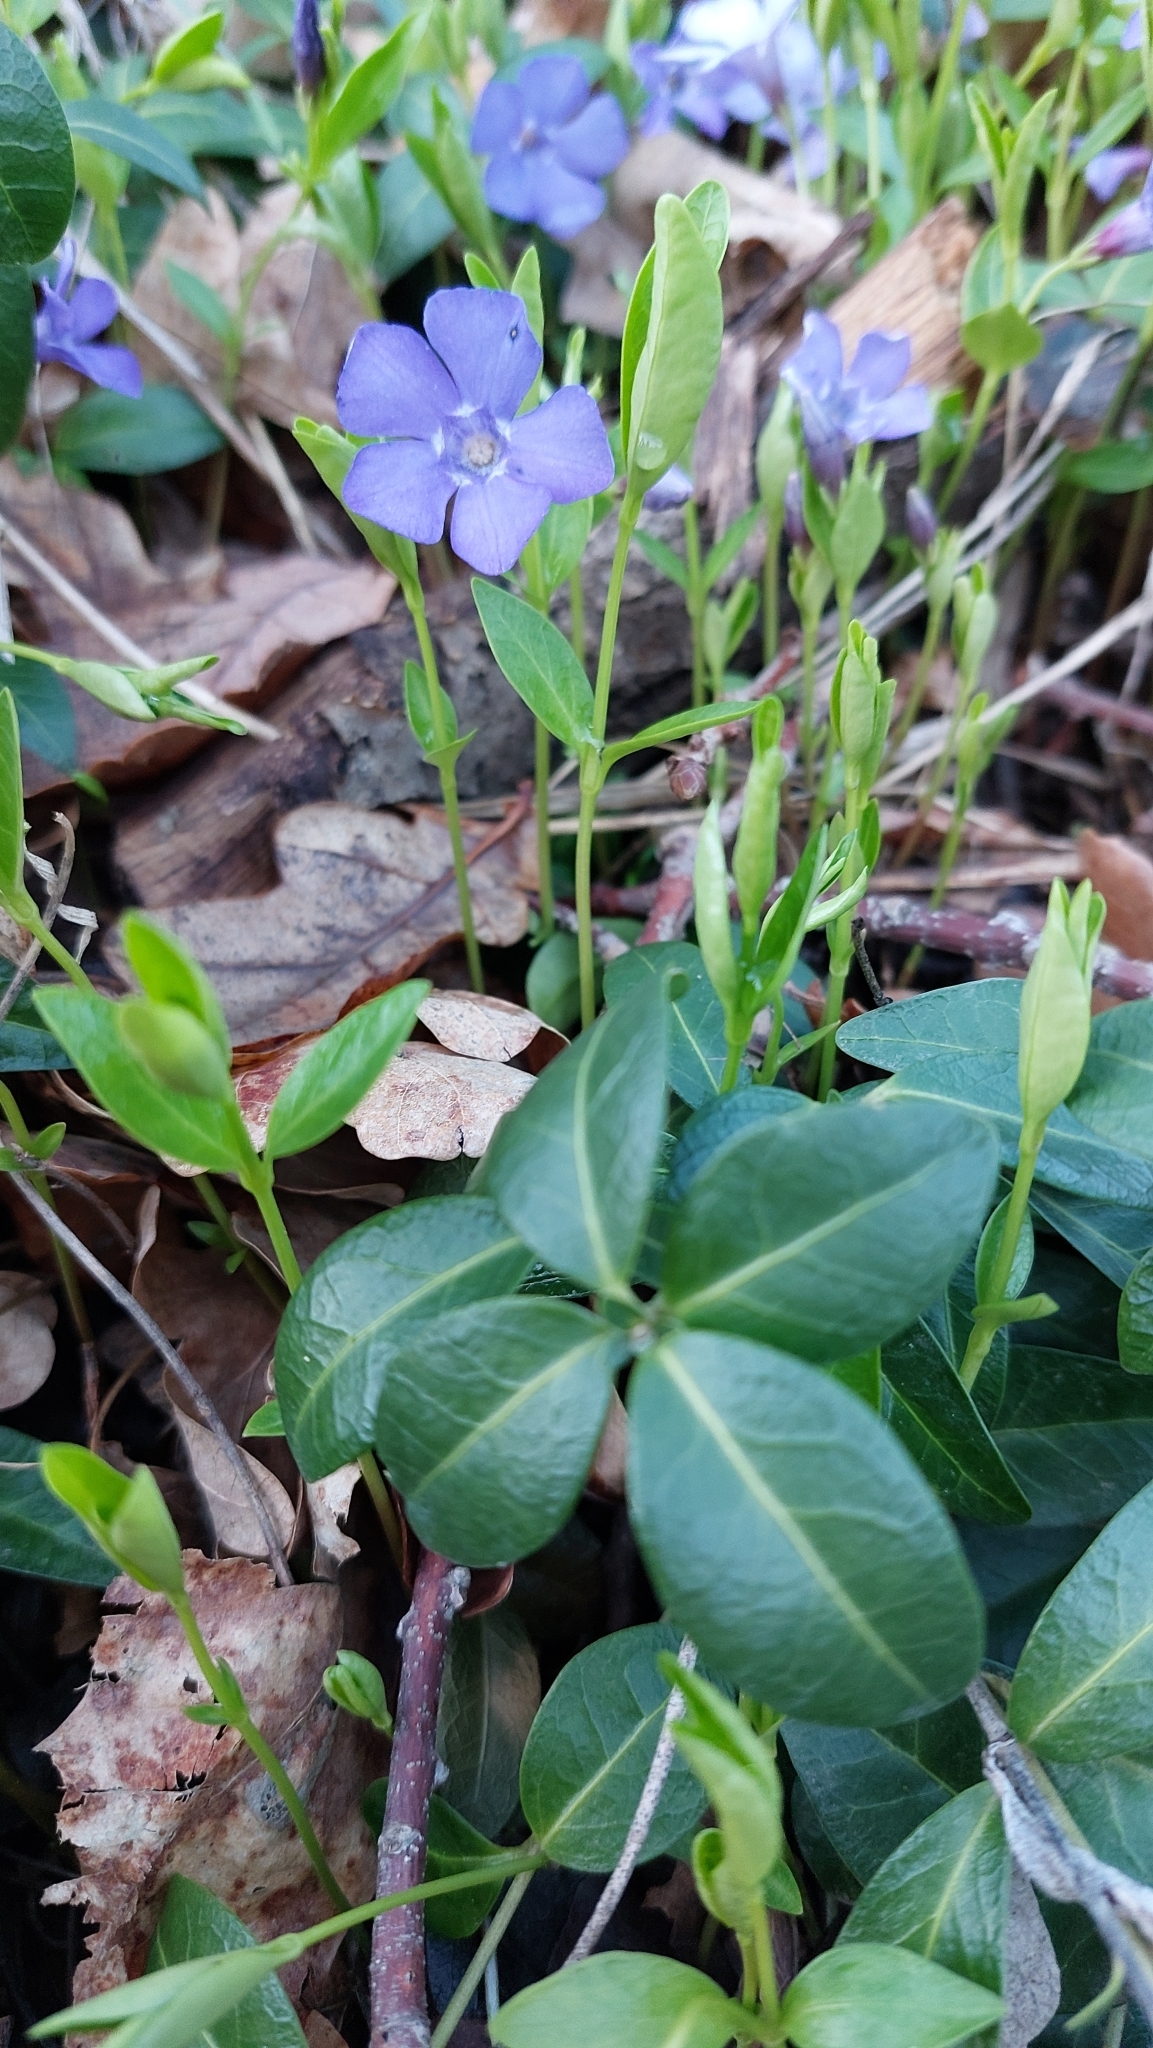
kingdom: Plantae
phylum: Tracheophyta
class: Magnoliopsida
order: Gentianales
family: Apocynaceae
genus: Vinca
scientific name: Vinca minor
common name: Lesser periwinkle
